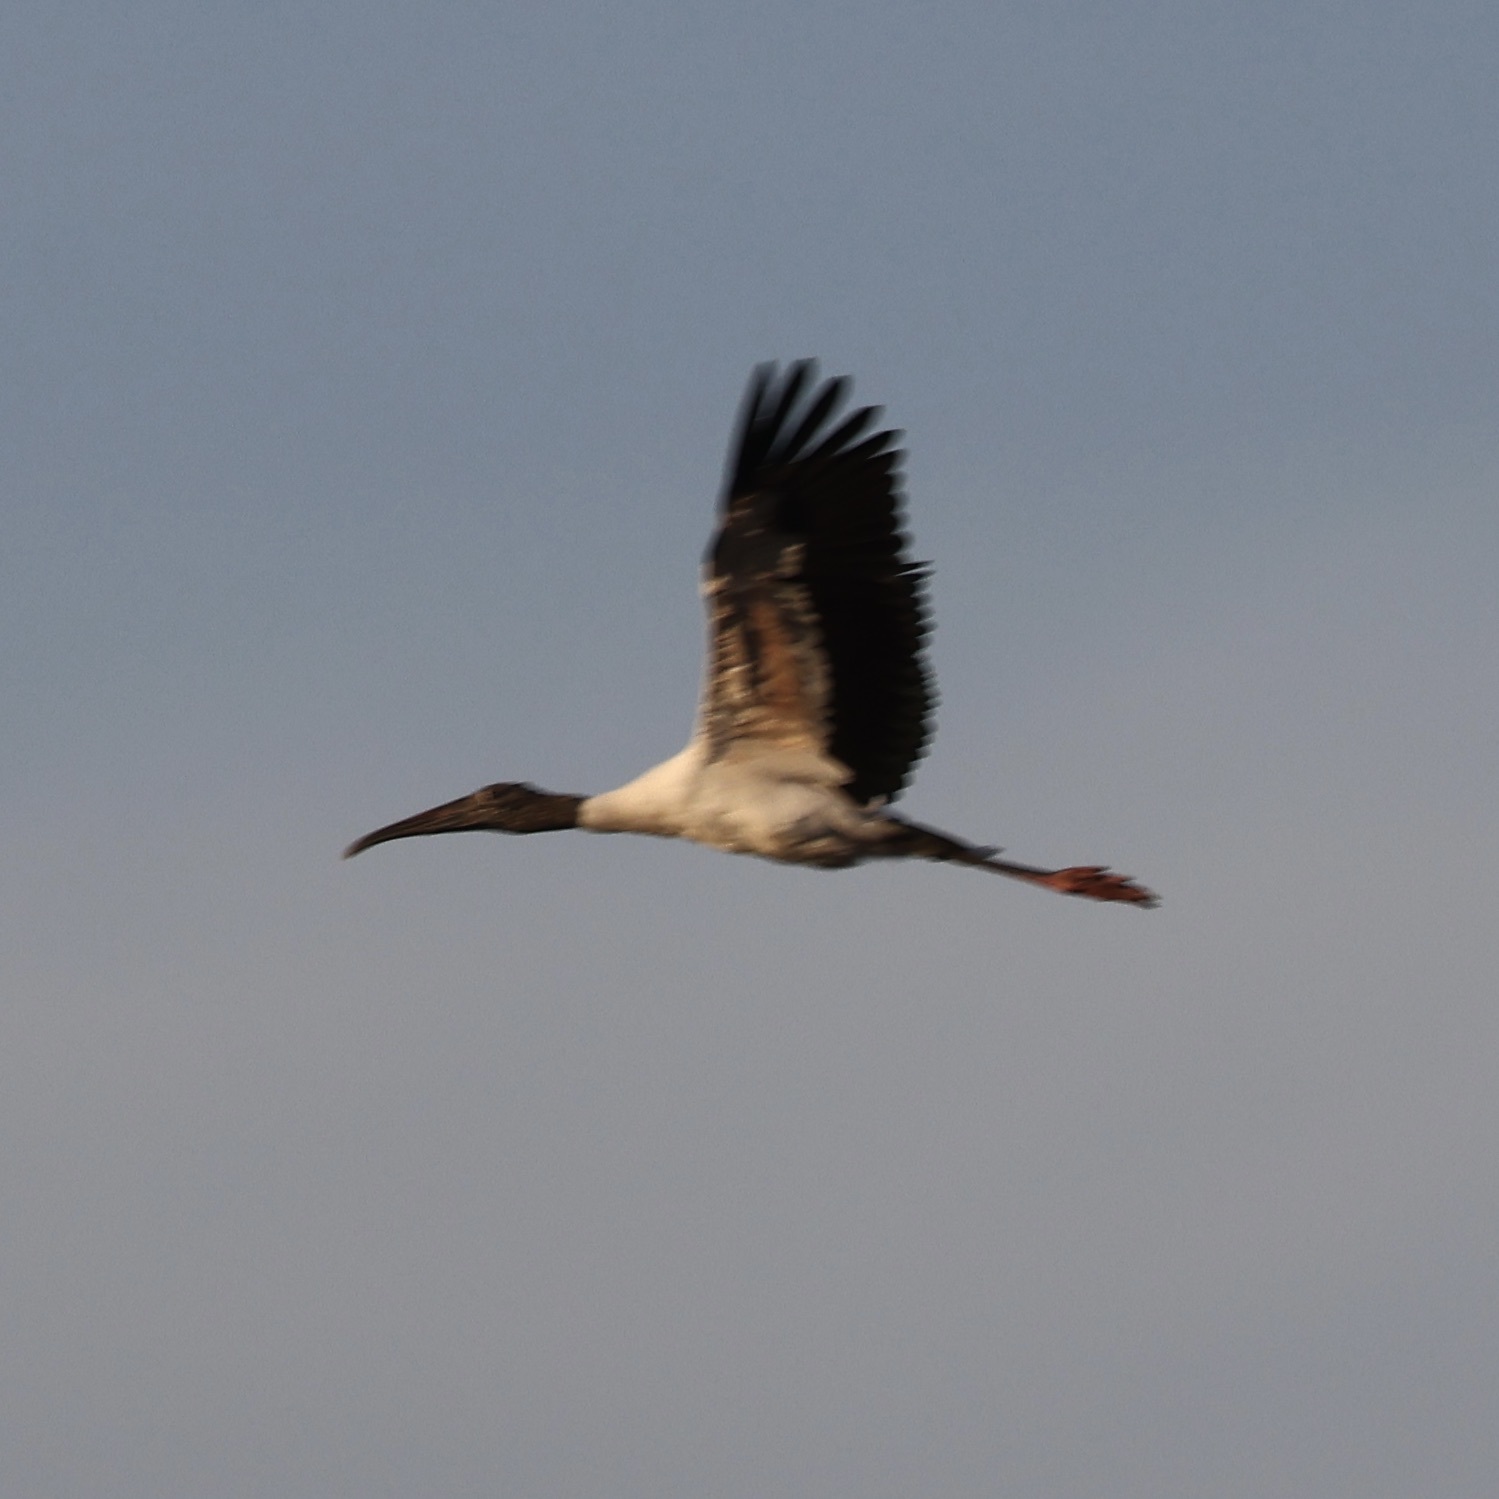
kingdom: Animalia
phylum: Chordata
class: Aves
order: Ciconiiformes
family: Ciconiidae
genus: Mycteria
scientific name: Mycteria americana
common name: Wood stork
